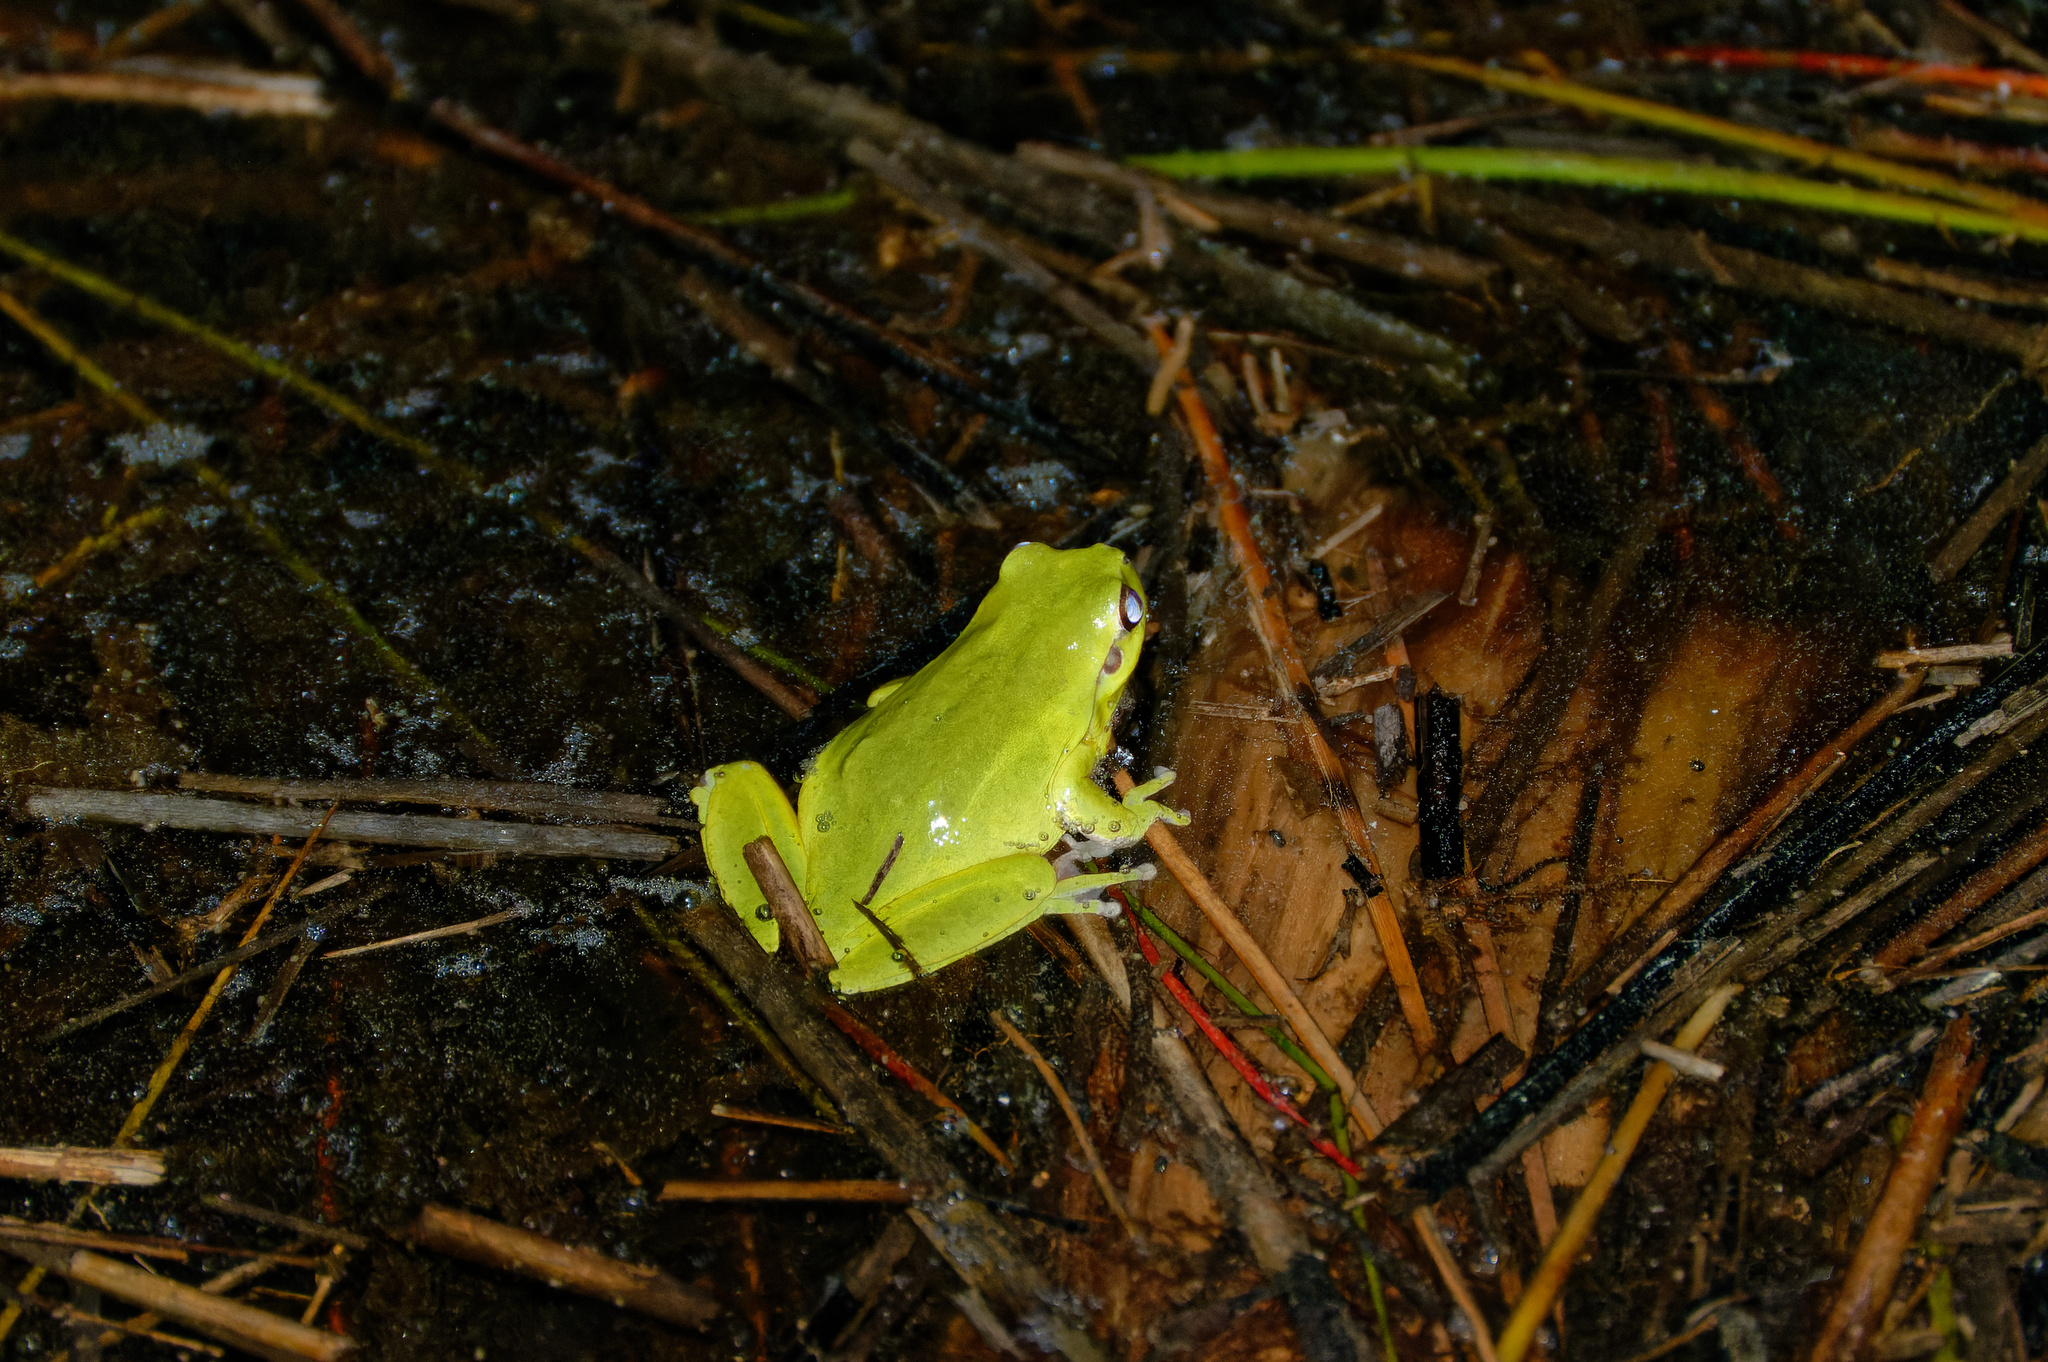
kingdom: Animalia
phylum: Chordata
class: Amphibia
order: Anura
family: Hylidae
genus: Hyla
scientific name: Hyla meridionalis
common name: Stripeless tree frog
